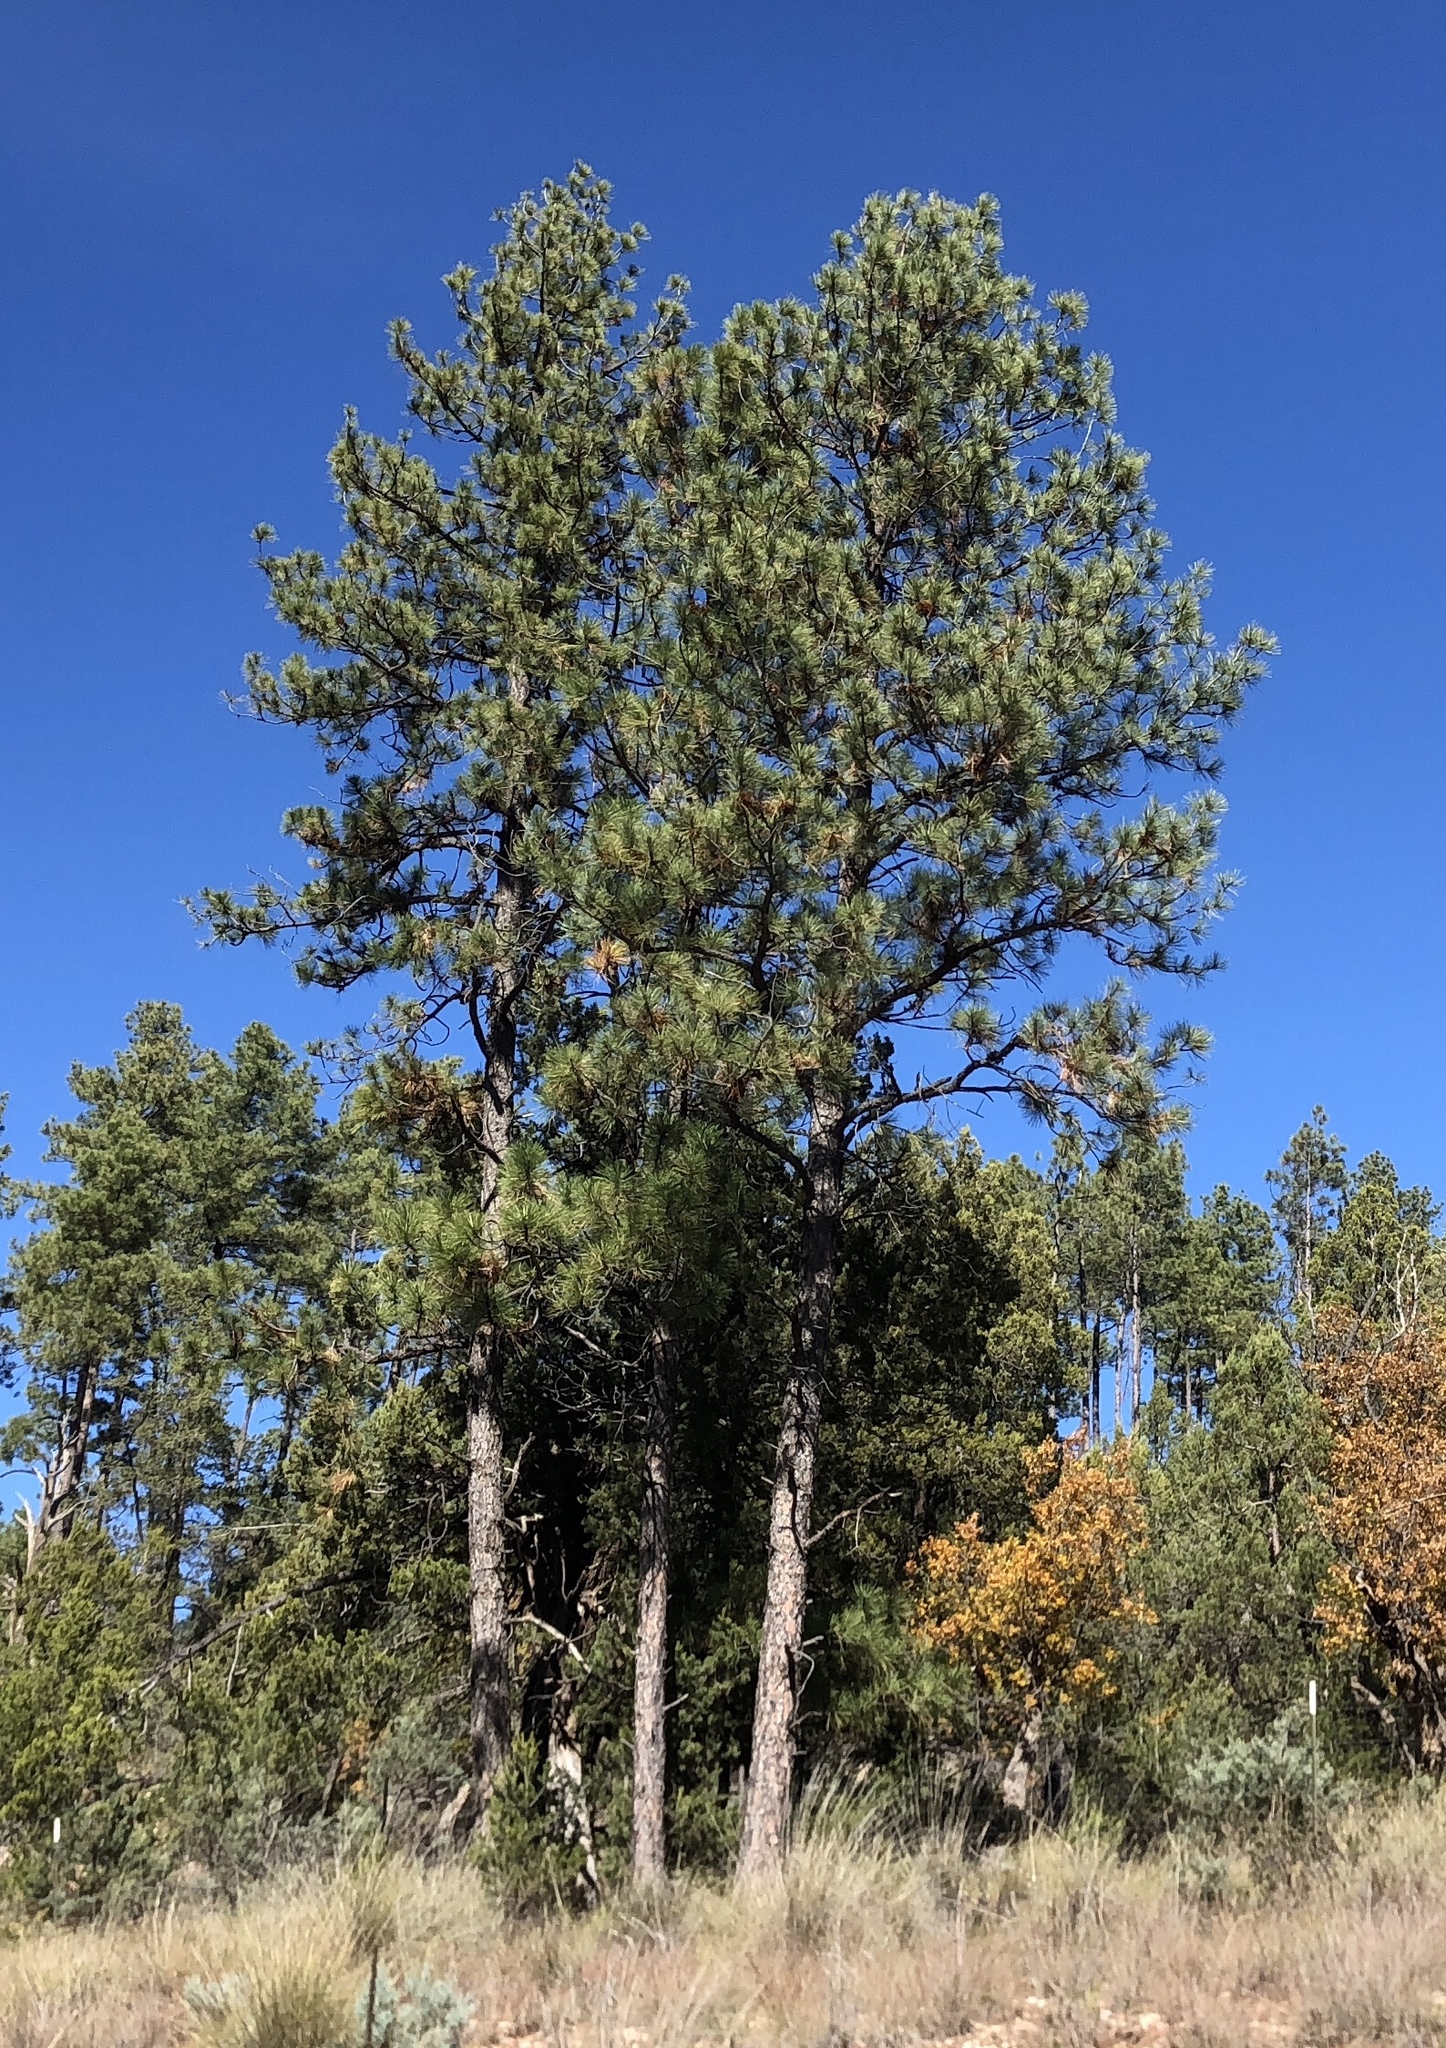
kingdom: Plantae
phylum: Tracheophyta
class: Pinopsida
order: Pinales
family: Pinaceae
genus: Pinus
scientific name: Pinus ponderosa
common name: Western yellow-pine
